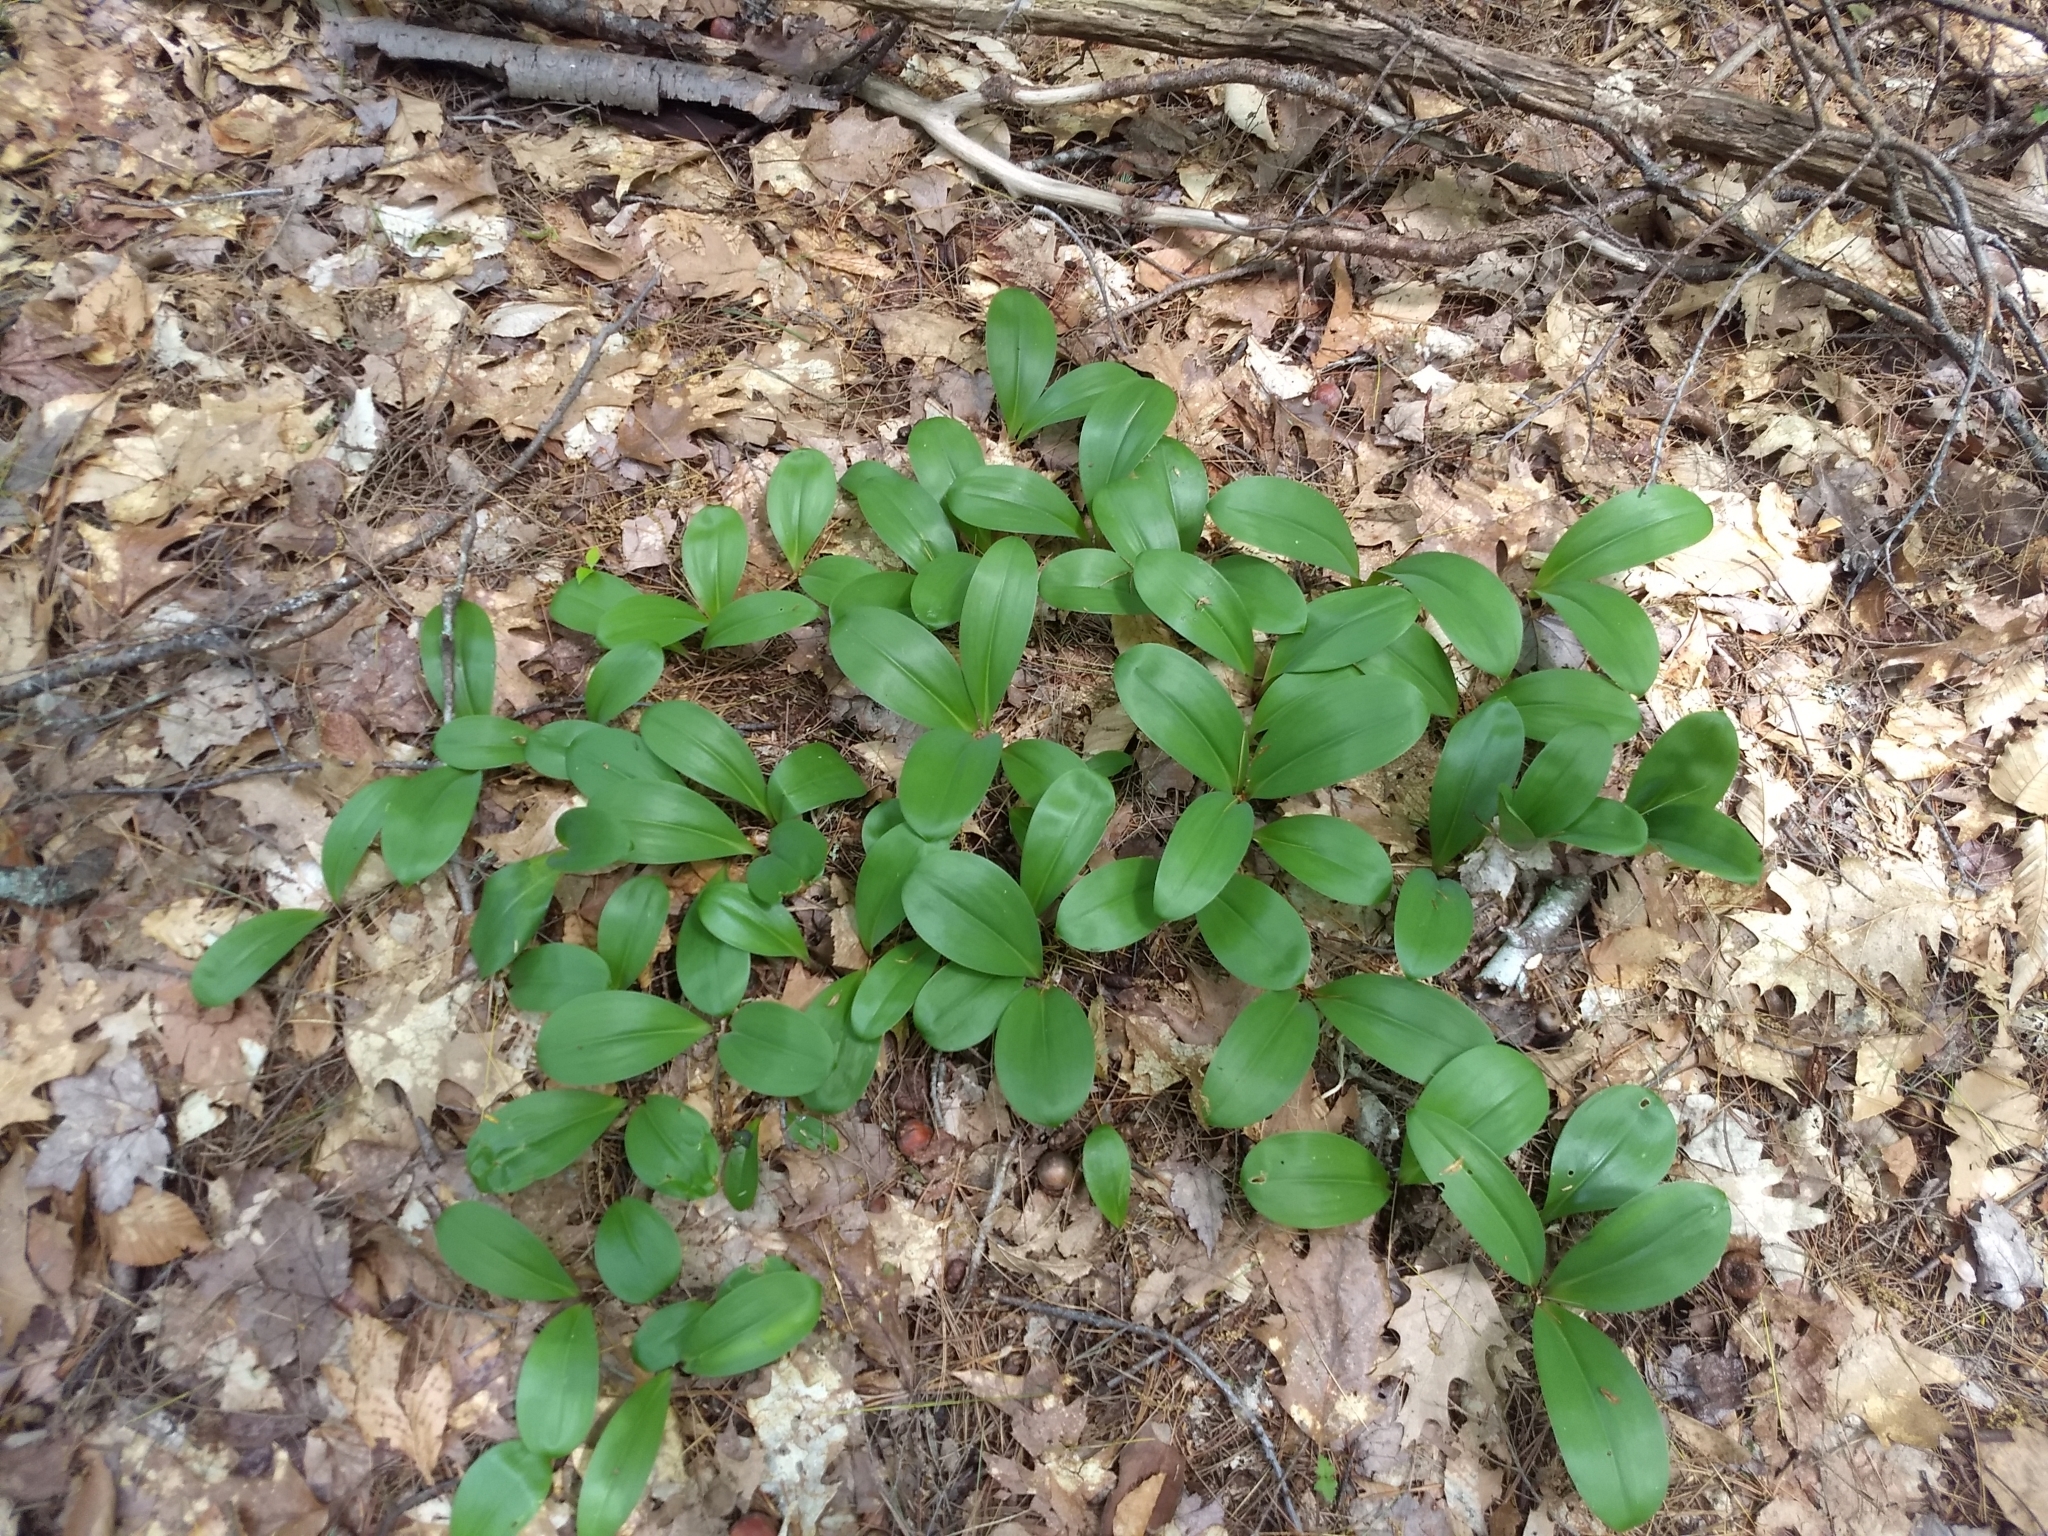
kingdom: Plantae
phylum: Tracheophyta
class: Liliopsida
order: Liliales
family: Liliaceae
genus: Clintonia
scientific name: Clintonia borealis
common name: Yellow clintonia
